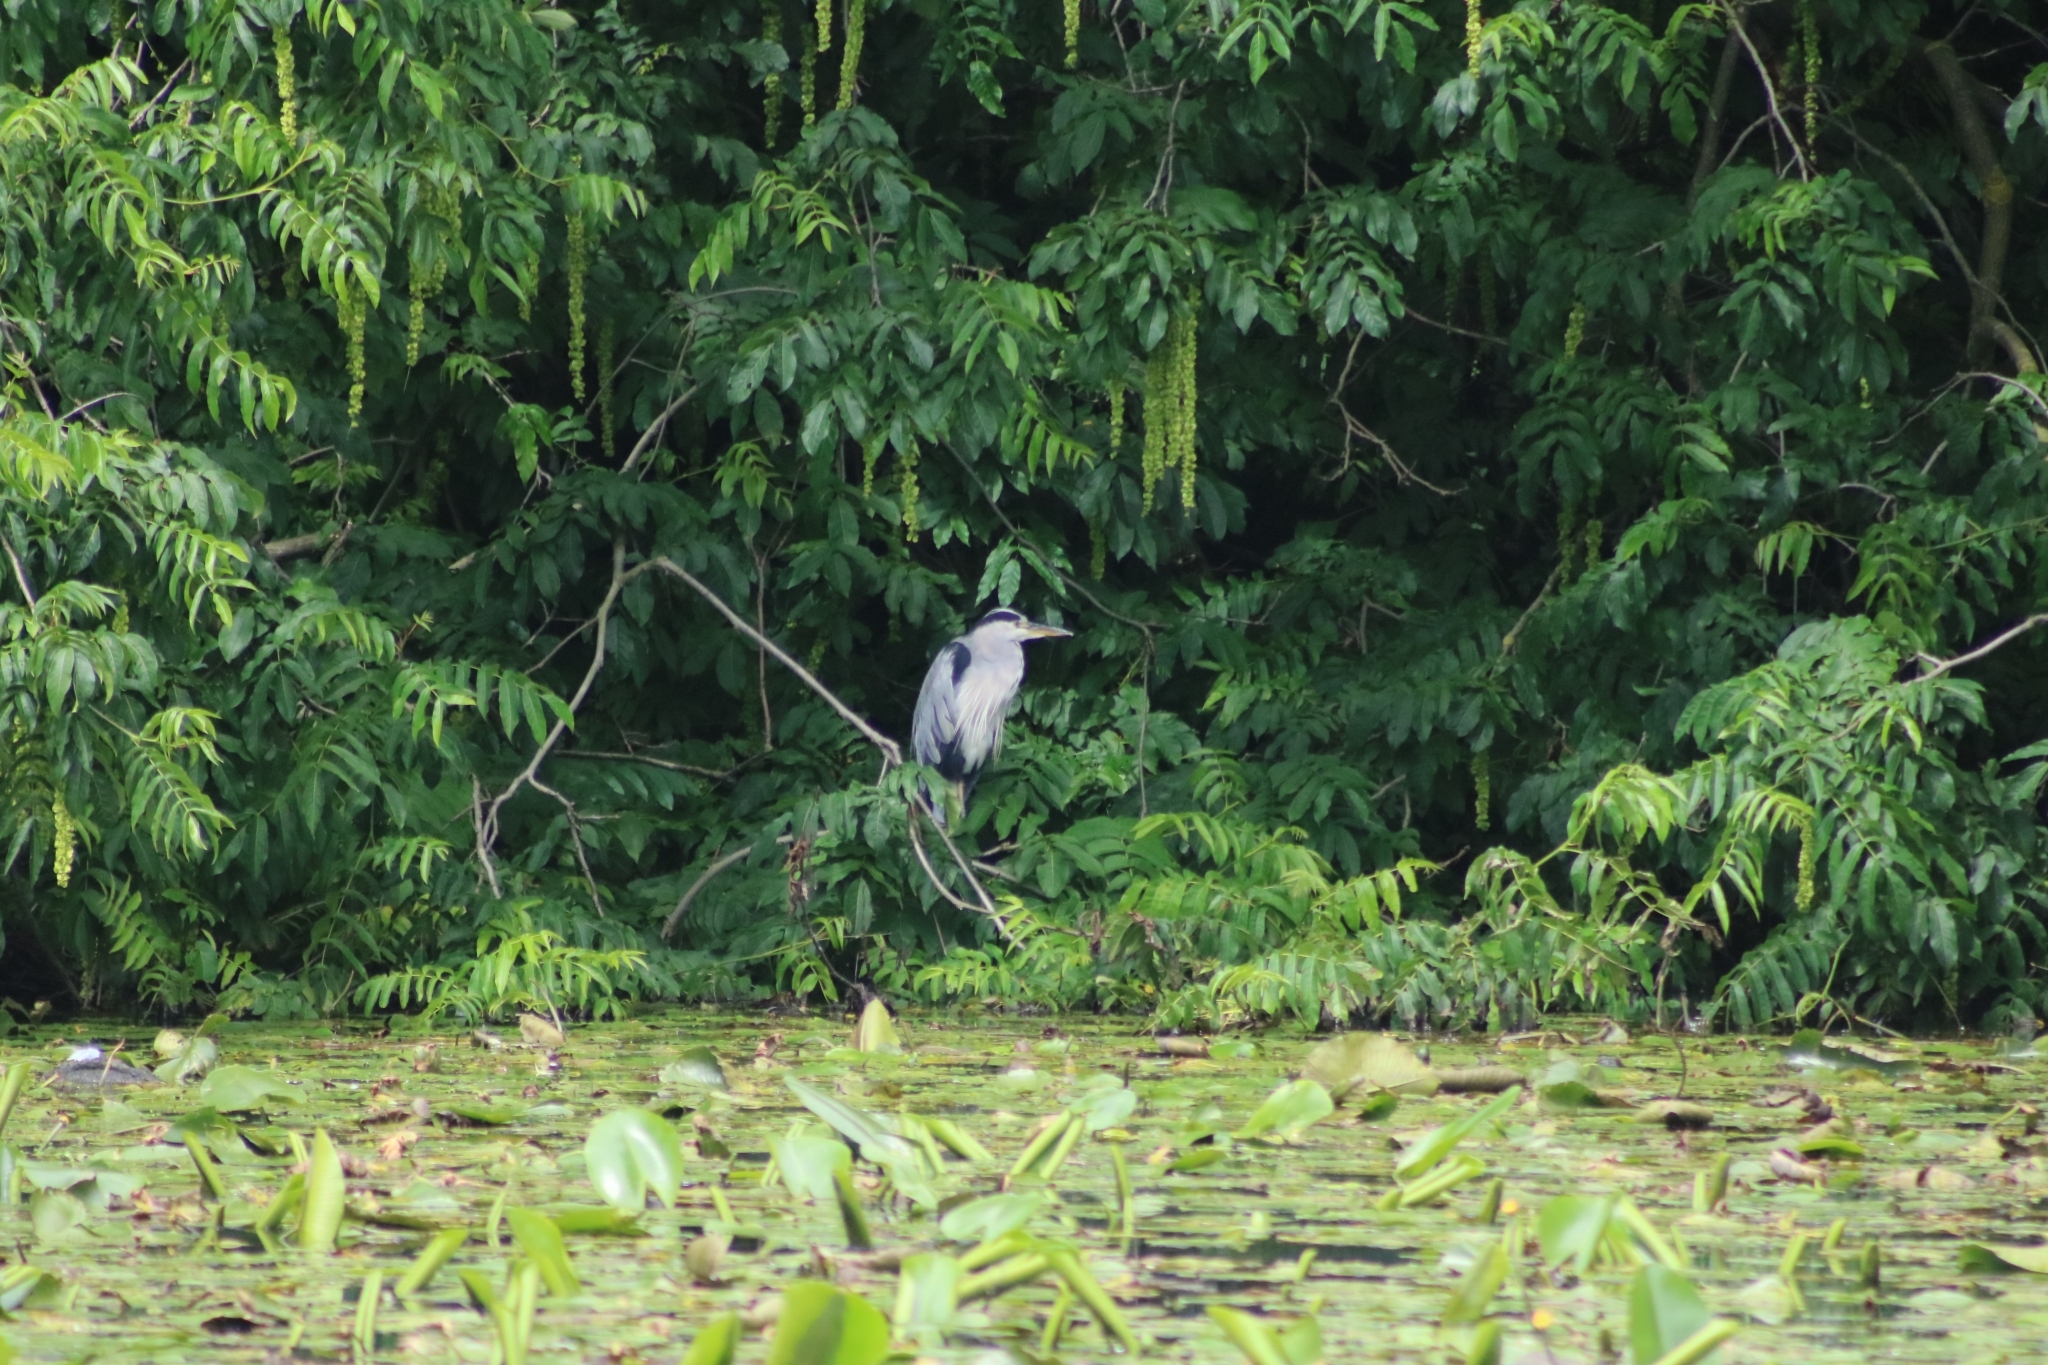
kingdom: Animalia
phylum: Chordata
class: Aves
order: Pelecaniformes
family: Ardeidae
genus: Ardea
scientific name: Ardea cinerea
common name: Grey heron
